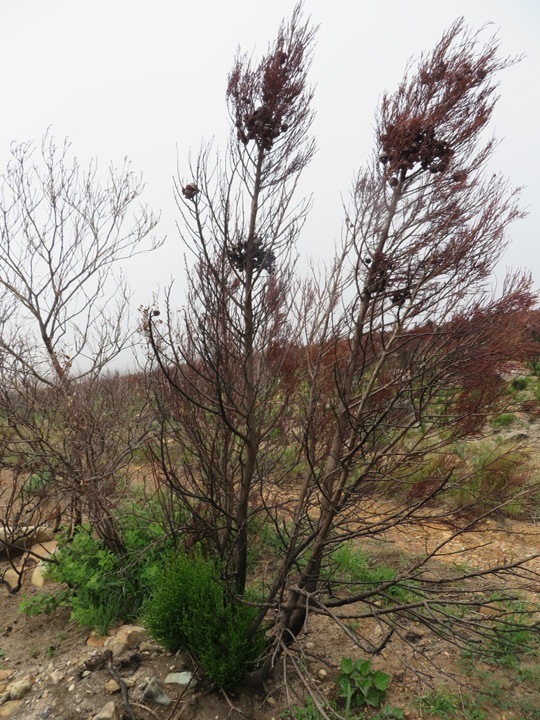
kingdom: Plantae
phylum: Tracheophyta
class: Pinopsida
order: Pinales
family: Cupressaceae
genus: Widdringtonia
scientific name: Widdringtonia nodiflora
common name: Cape cypress
